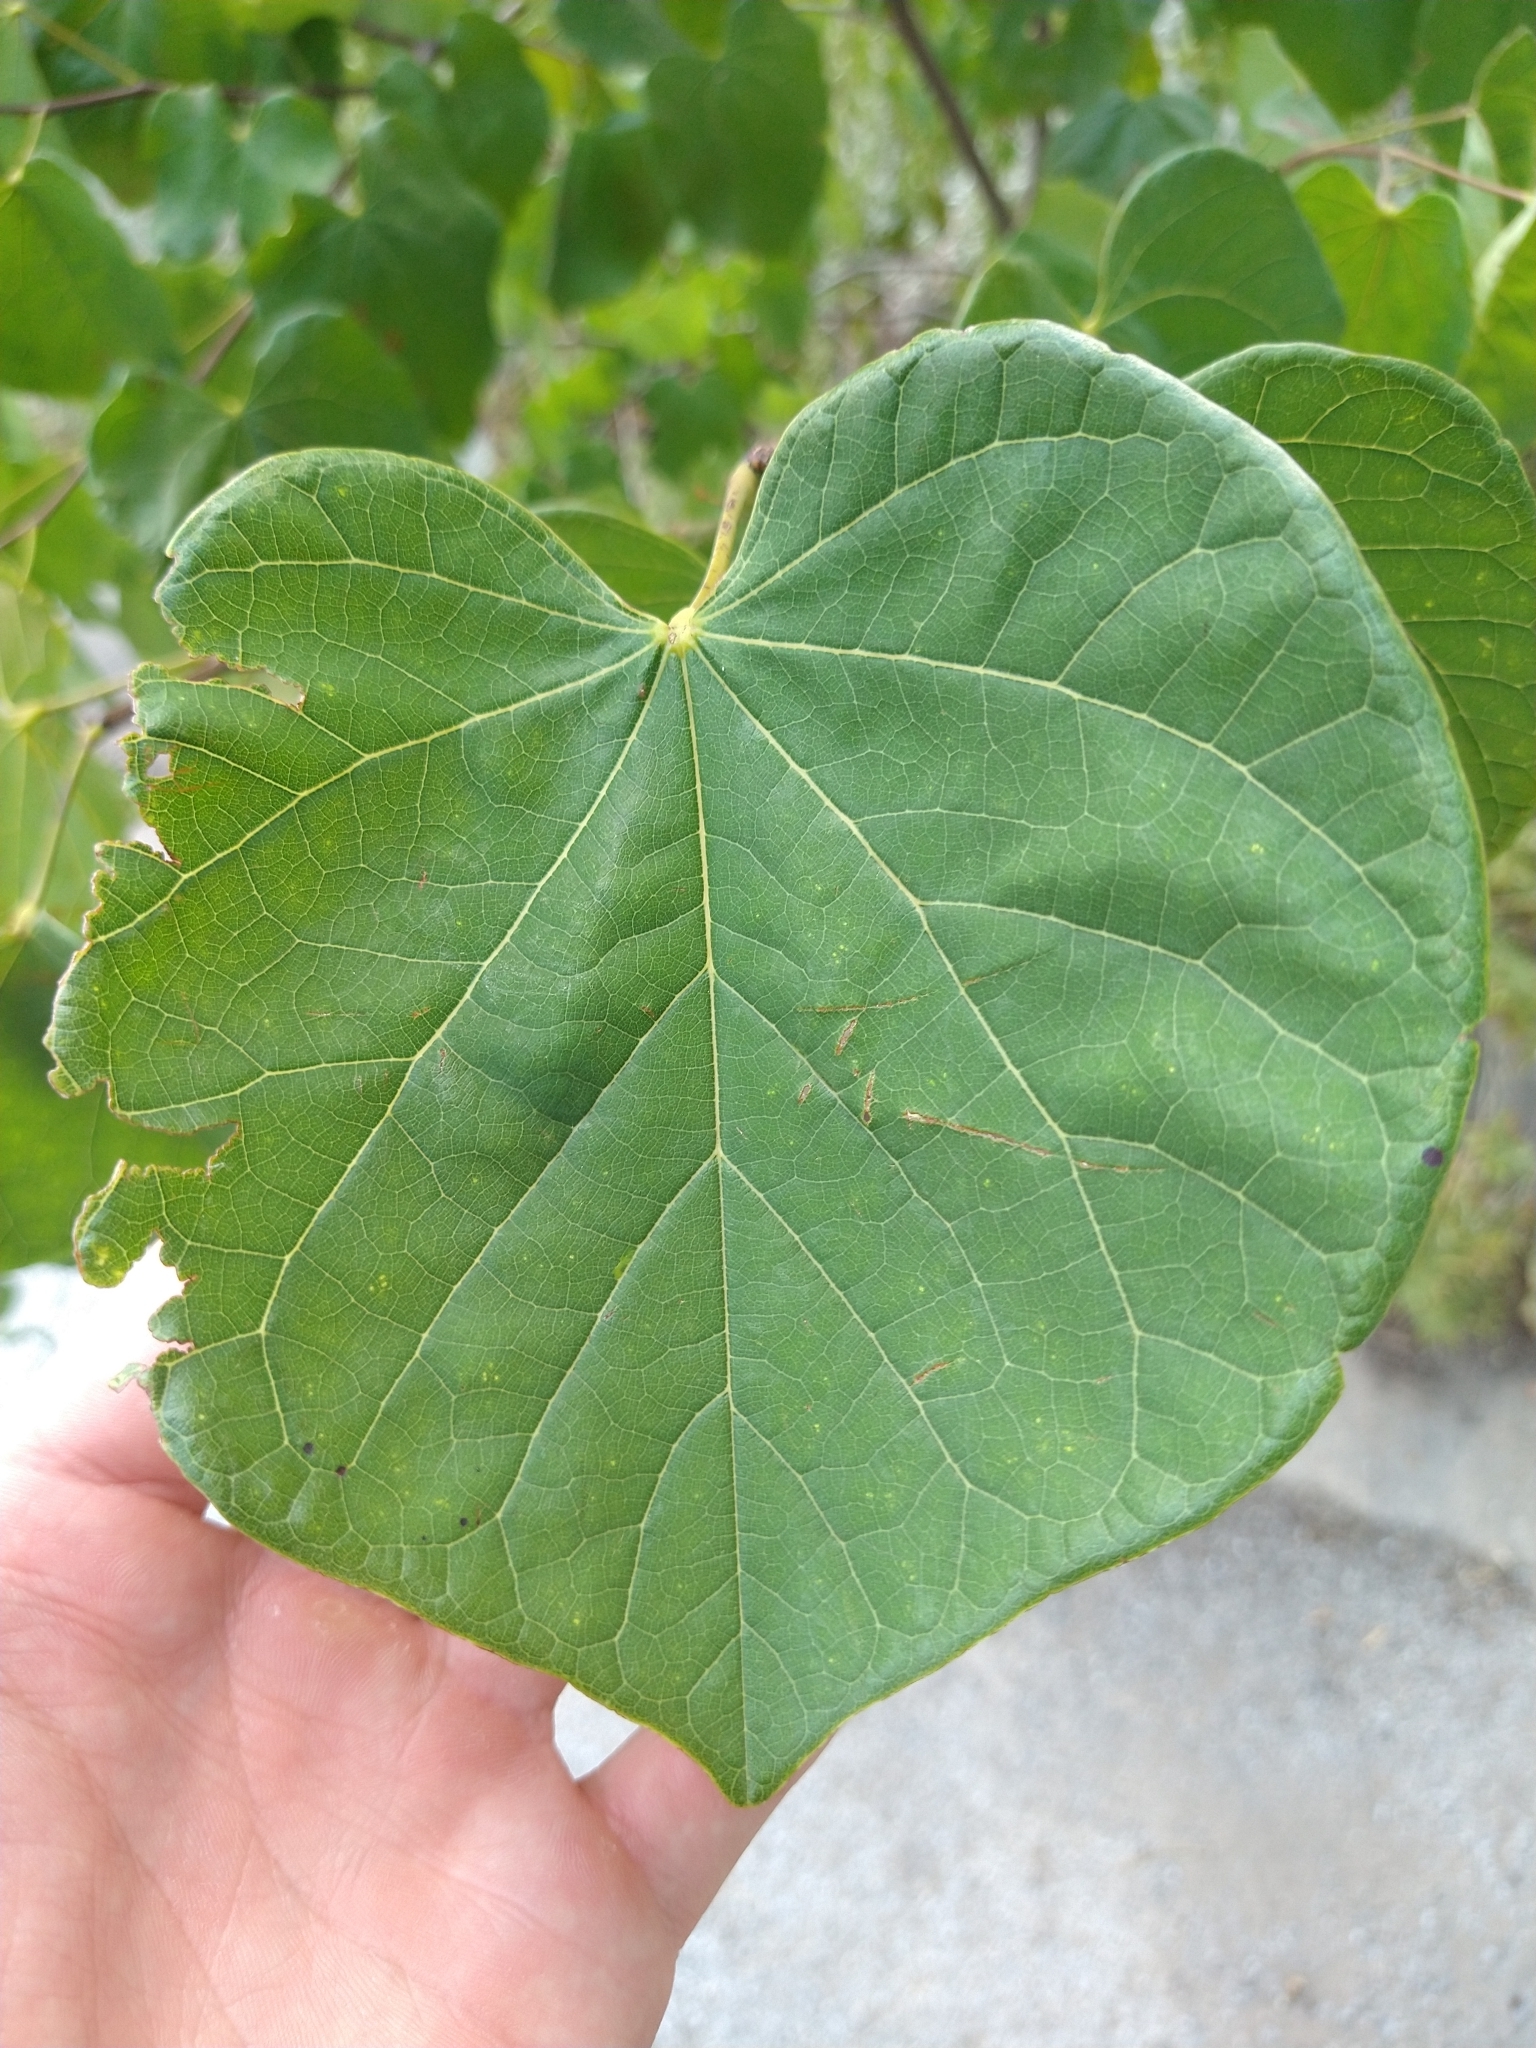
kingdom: Plantae
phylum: Tracheophyta
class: Magnoliopsida
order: Fabales
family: Fabaceae
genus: Cercis
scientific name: Cercis canadensis
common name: Eastern redbud
